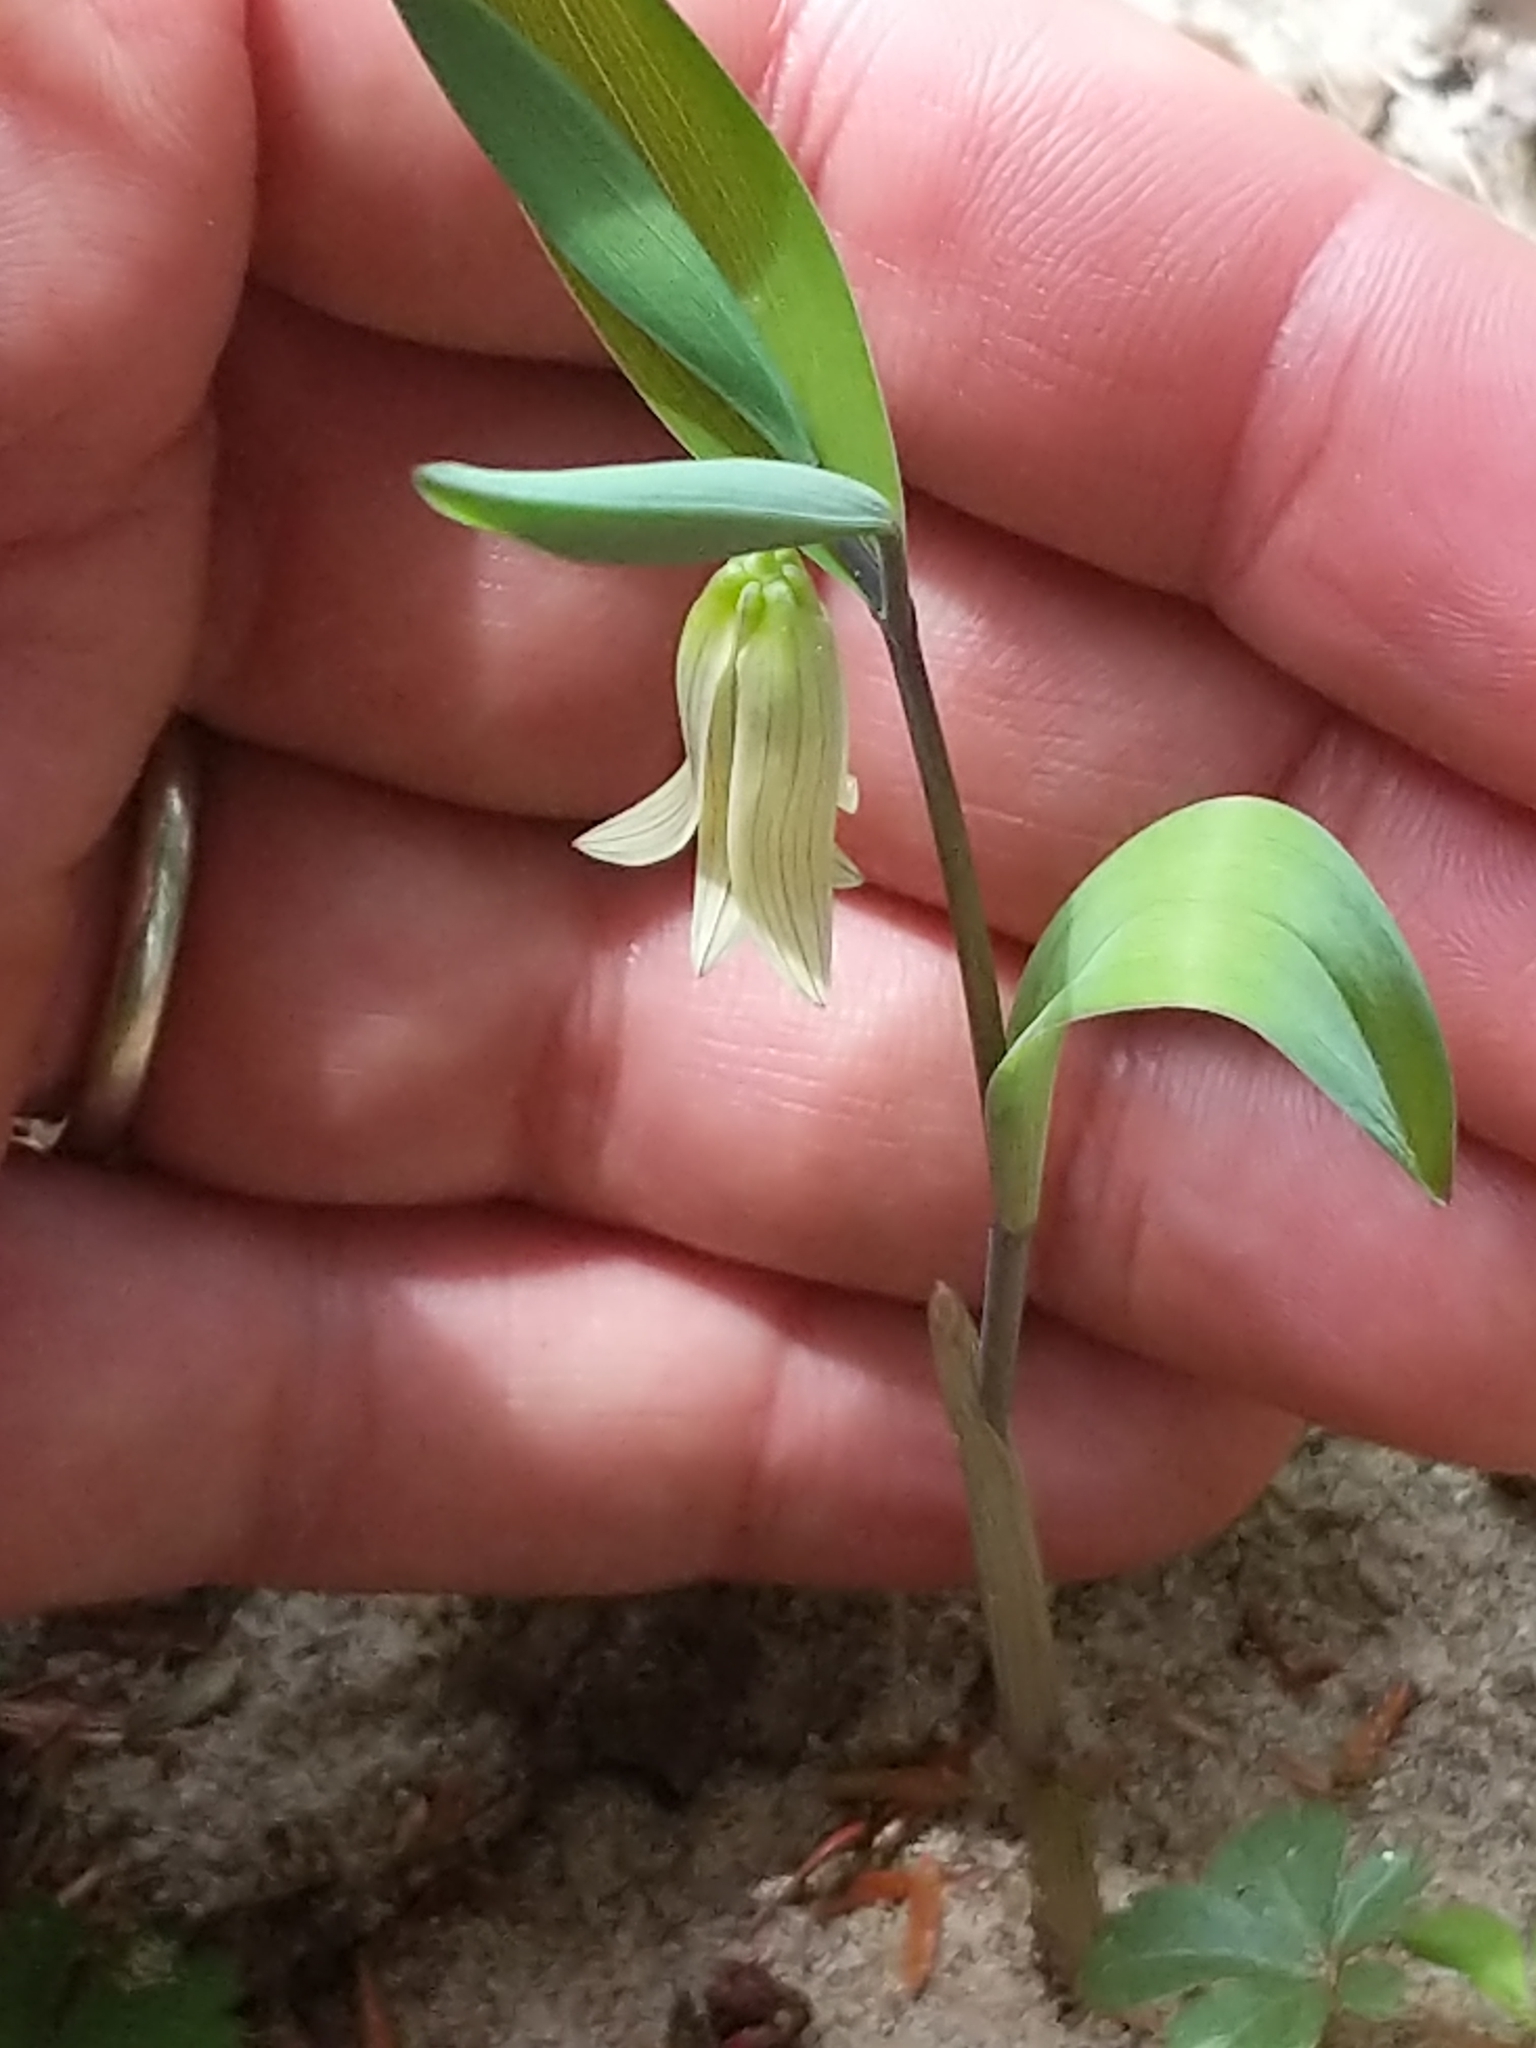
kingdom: Plantae
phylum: Tracheophyta
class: Liliopsida
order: Liliales
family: Colchicaceae
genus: Uvularia
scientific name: Uvularia sessilifolia
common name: Straw-lily
